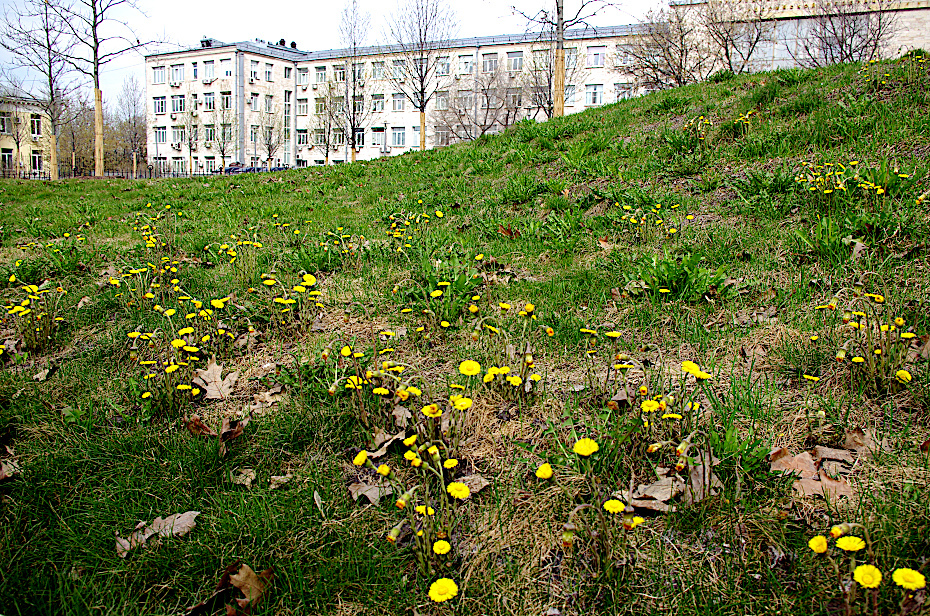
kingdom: Plantae
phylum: Tracheophyta
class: Magnoliopsida
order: Asterales
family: Asteraceae
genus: Tussilago
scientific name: Tussilago farfara
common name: Coltsfoot
